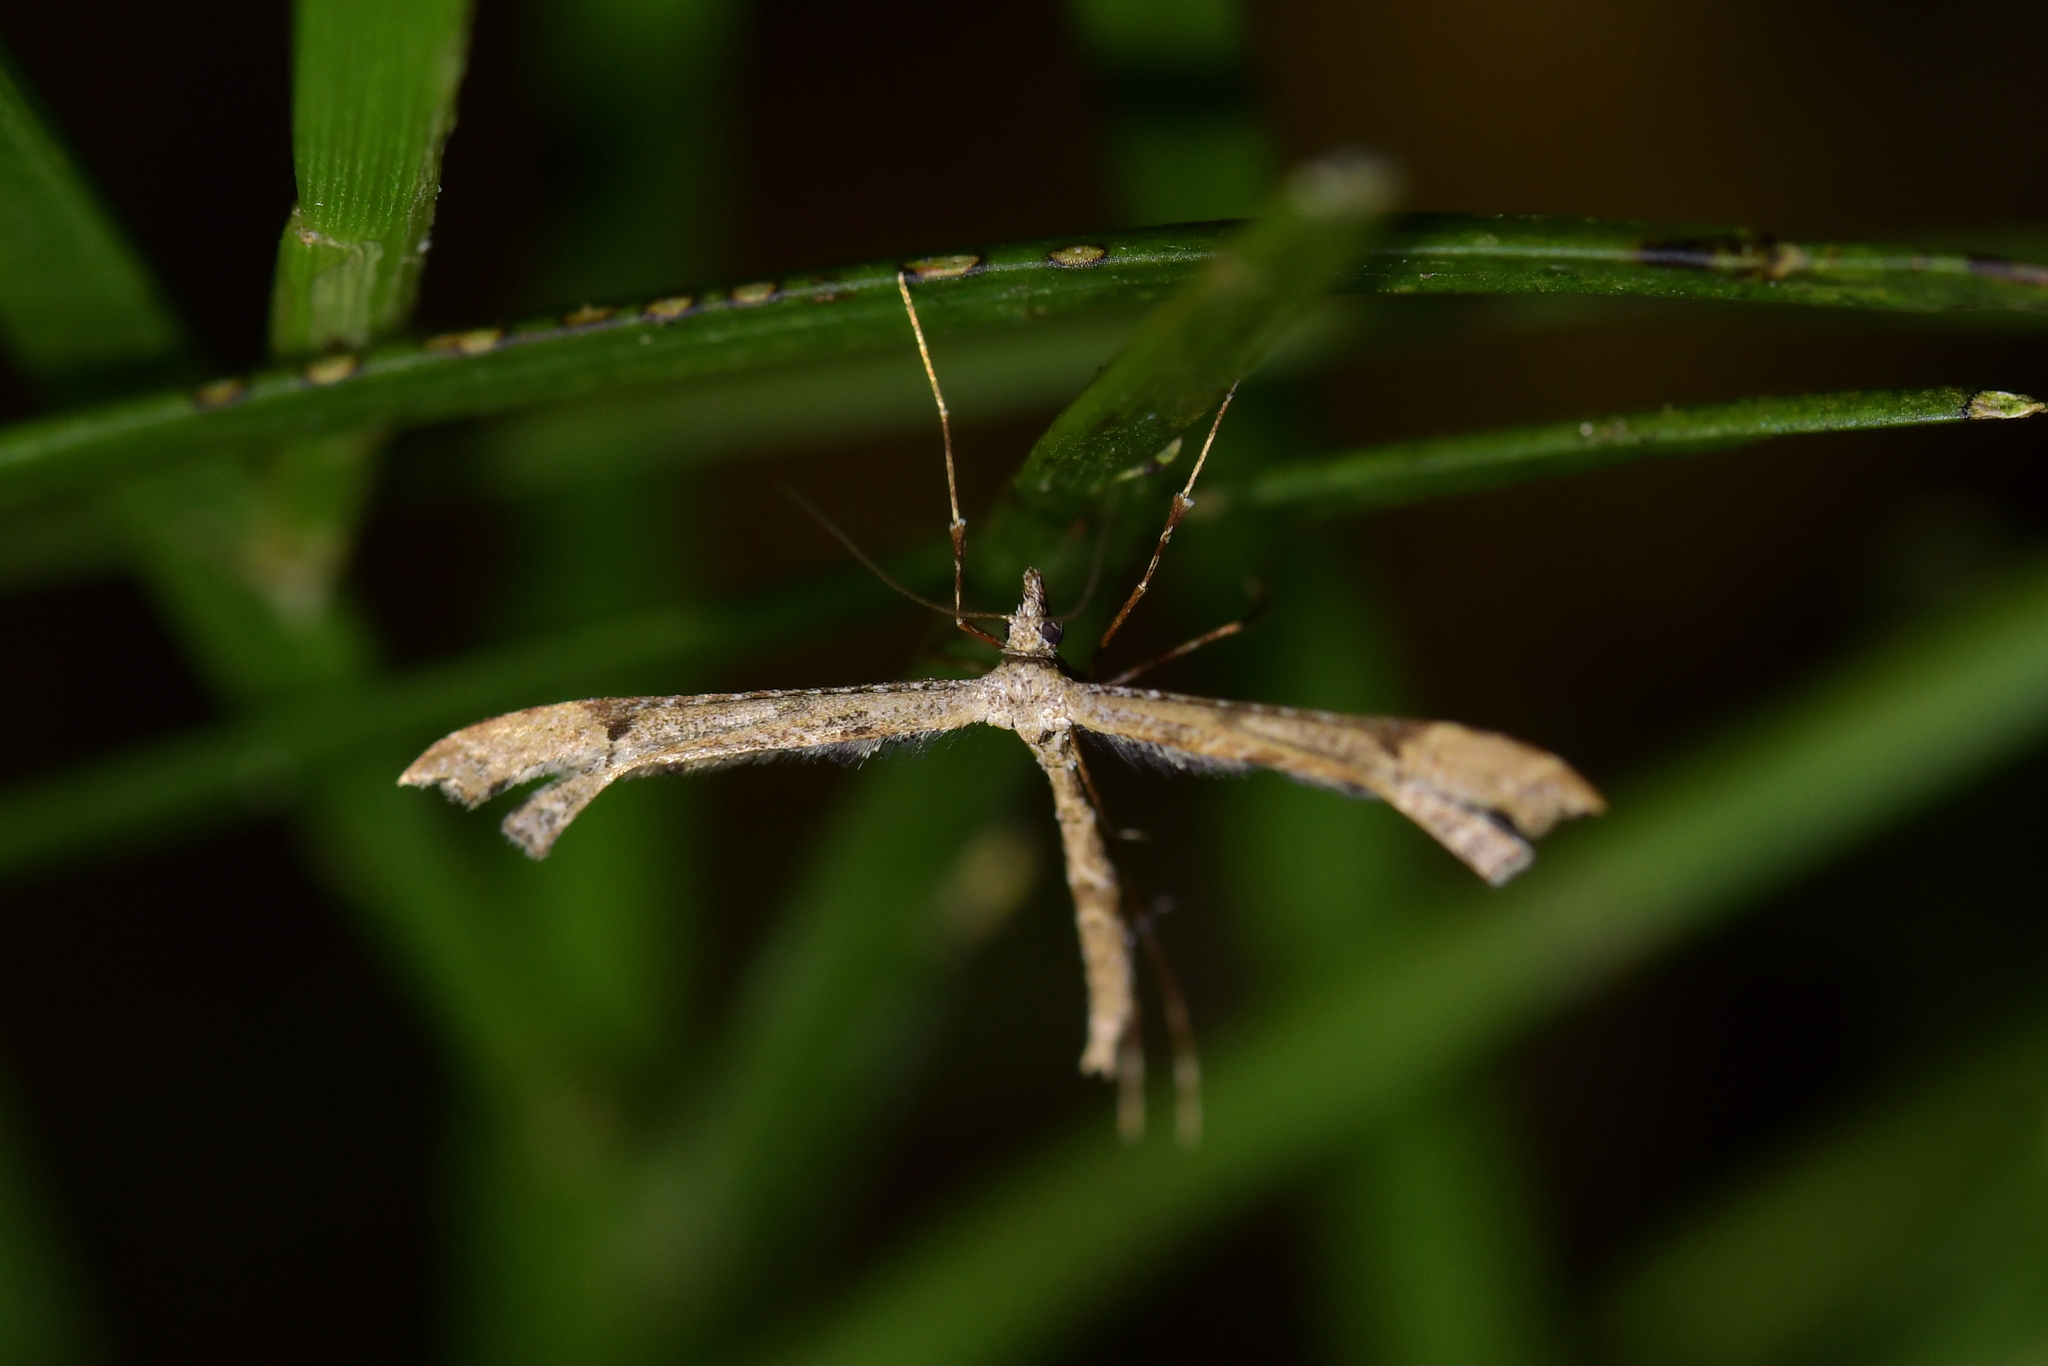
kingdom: Animalia
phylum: Arthropoda
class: Insecta
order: Lepidoptera
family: Pterophoridae
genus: Amblyptilia
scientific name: Amblyptilia repletalis
